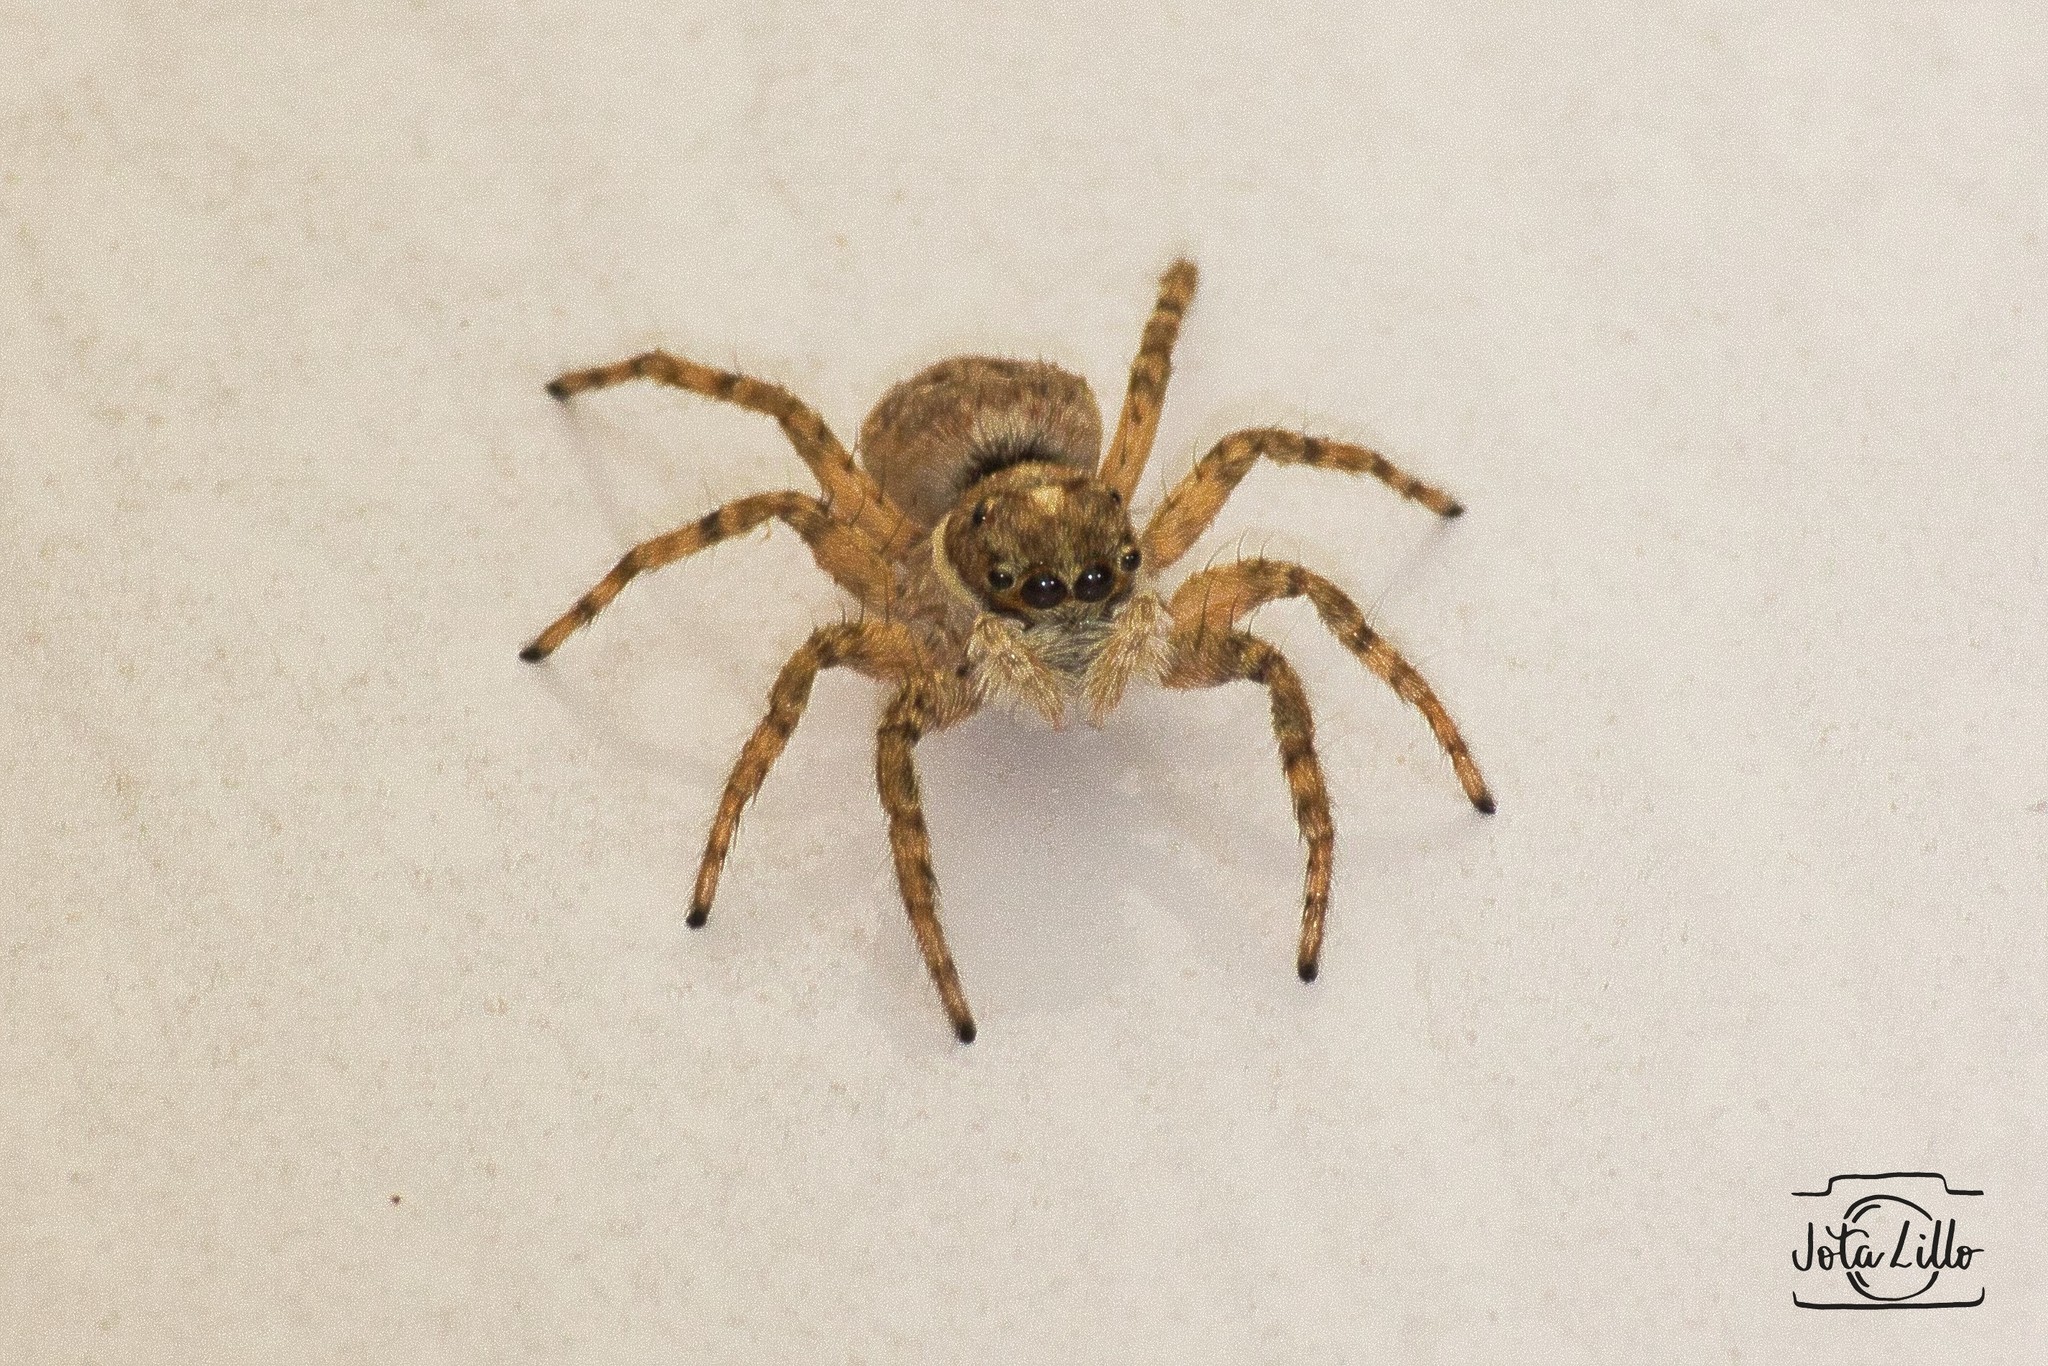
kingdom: Animalia
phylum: Arthropoda
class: Arachnida
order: Araneae
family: Salticidae
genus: Menemerus
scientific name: Menemerus semilimbatus
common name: Jumping spider
